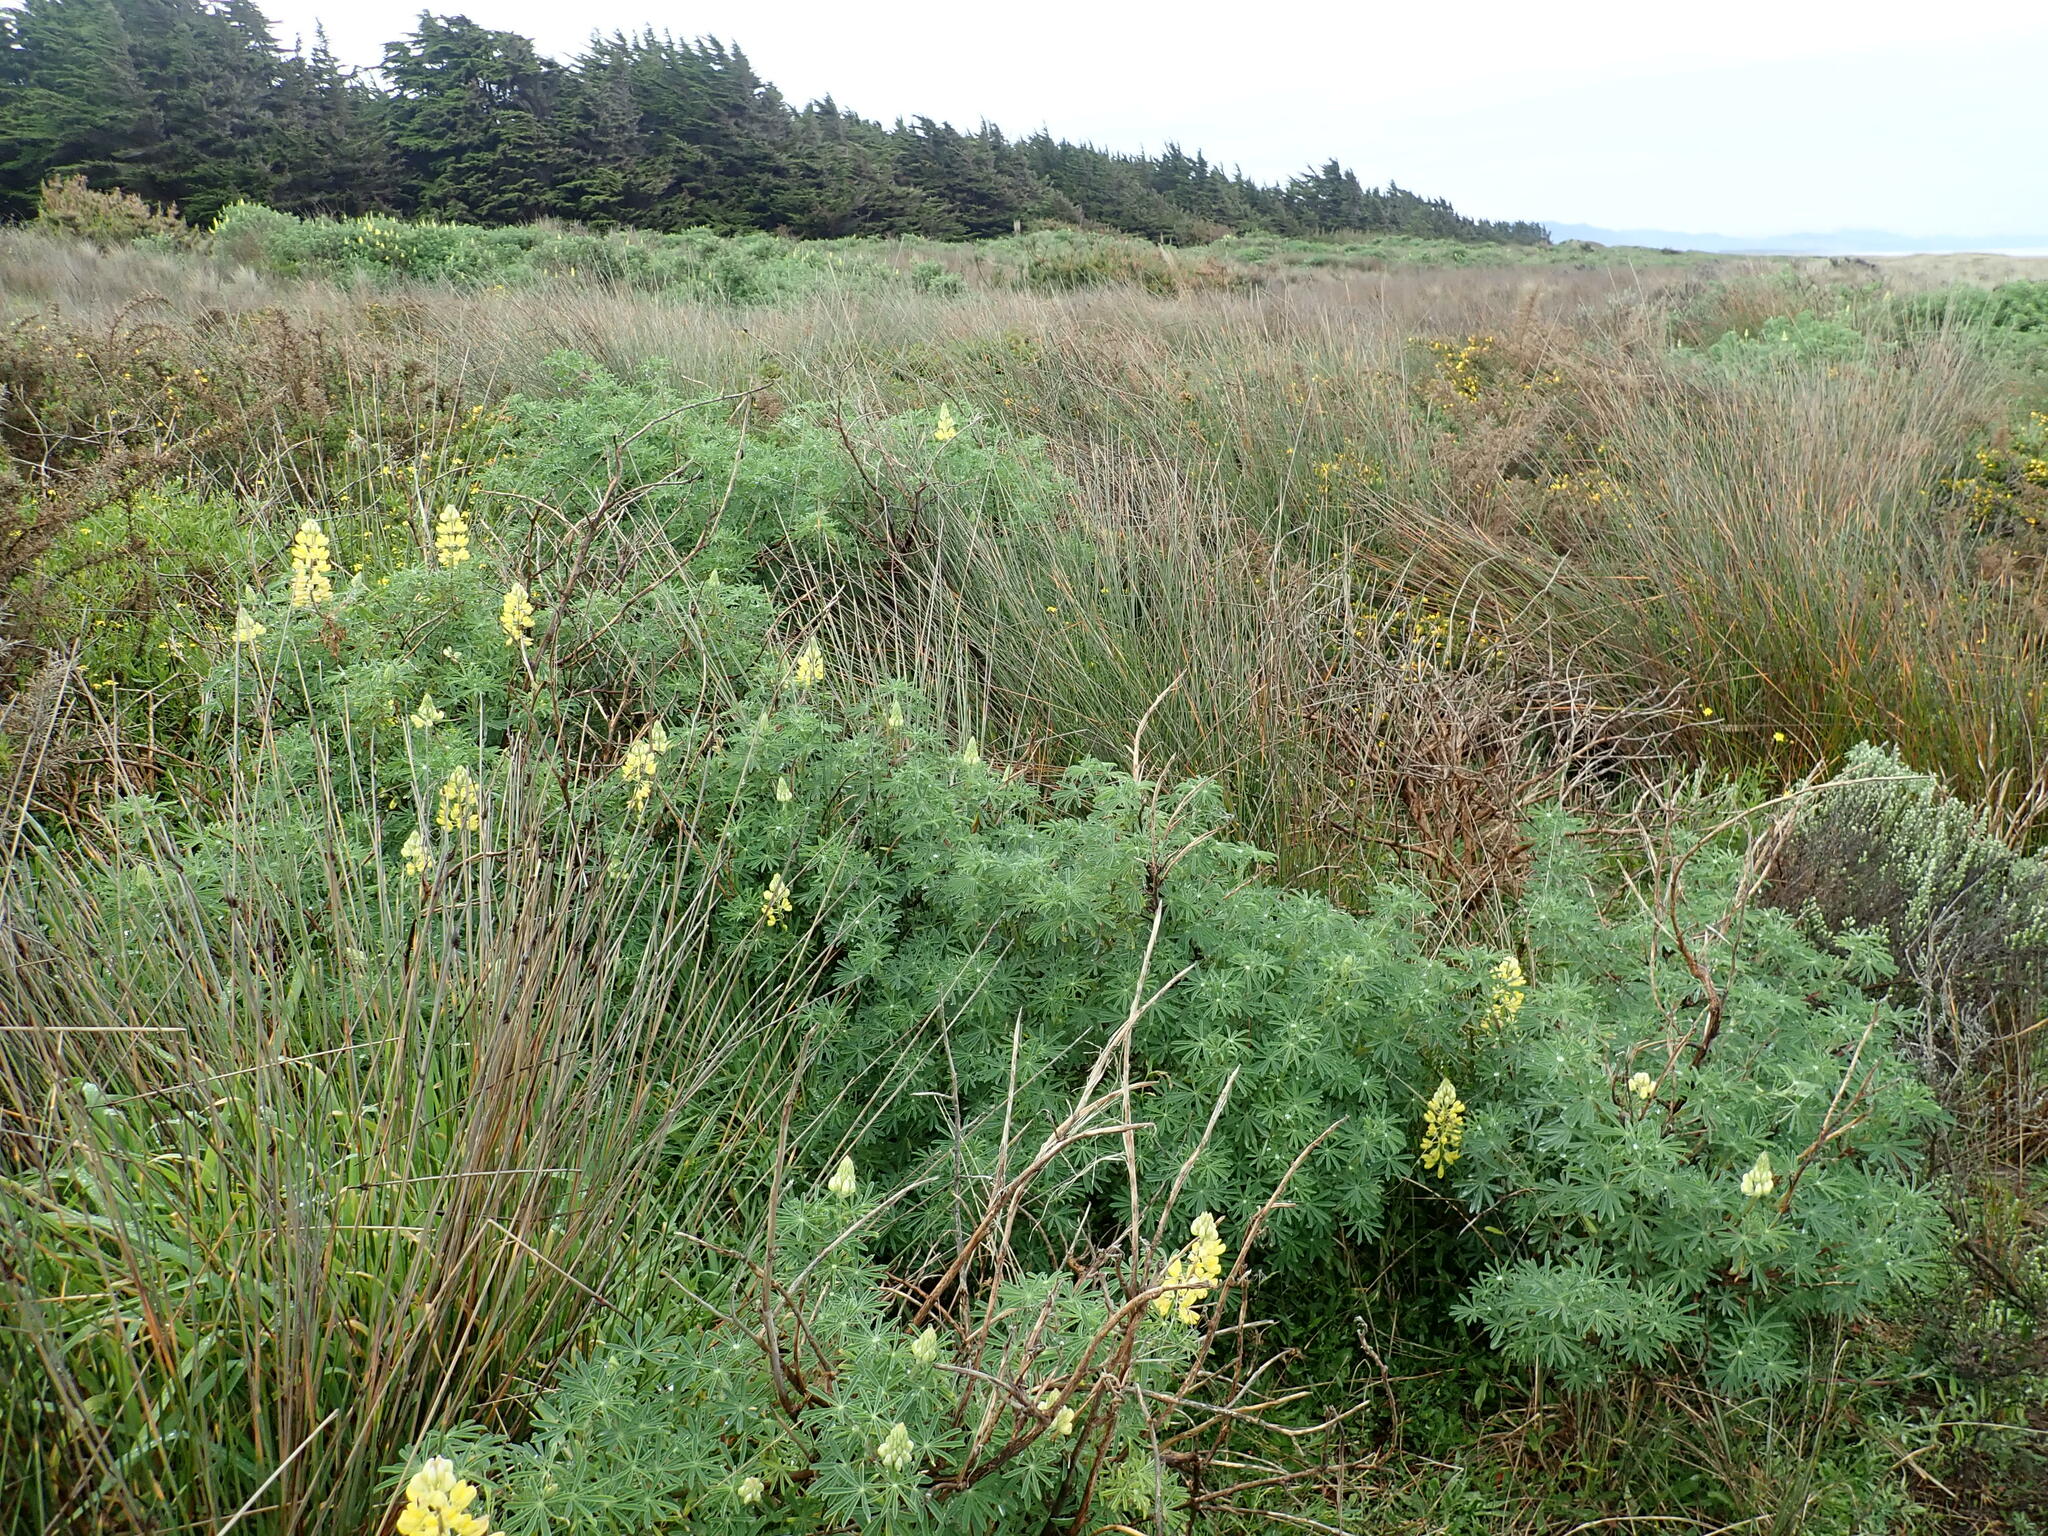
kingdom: Plantae
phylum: Tracheophyta
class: Magnoliopsida
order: Fabales
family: Fabaceae
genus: Lupinus
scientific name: Lupinus arboreus
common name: Yellow bush lupine
